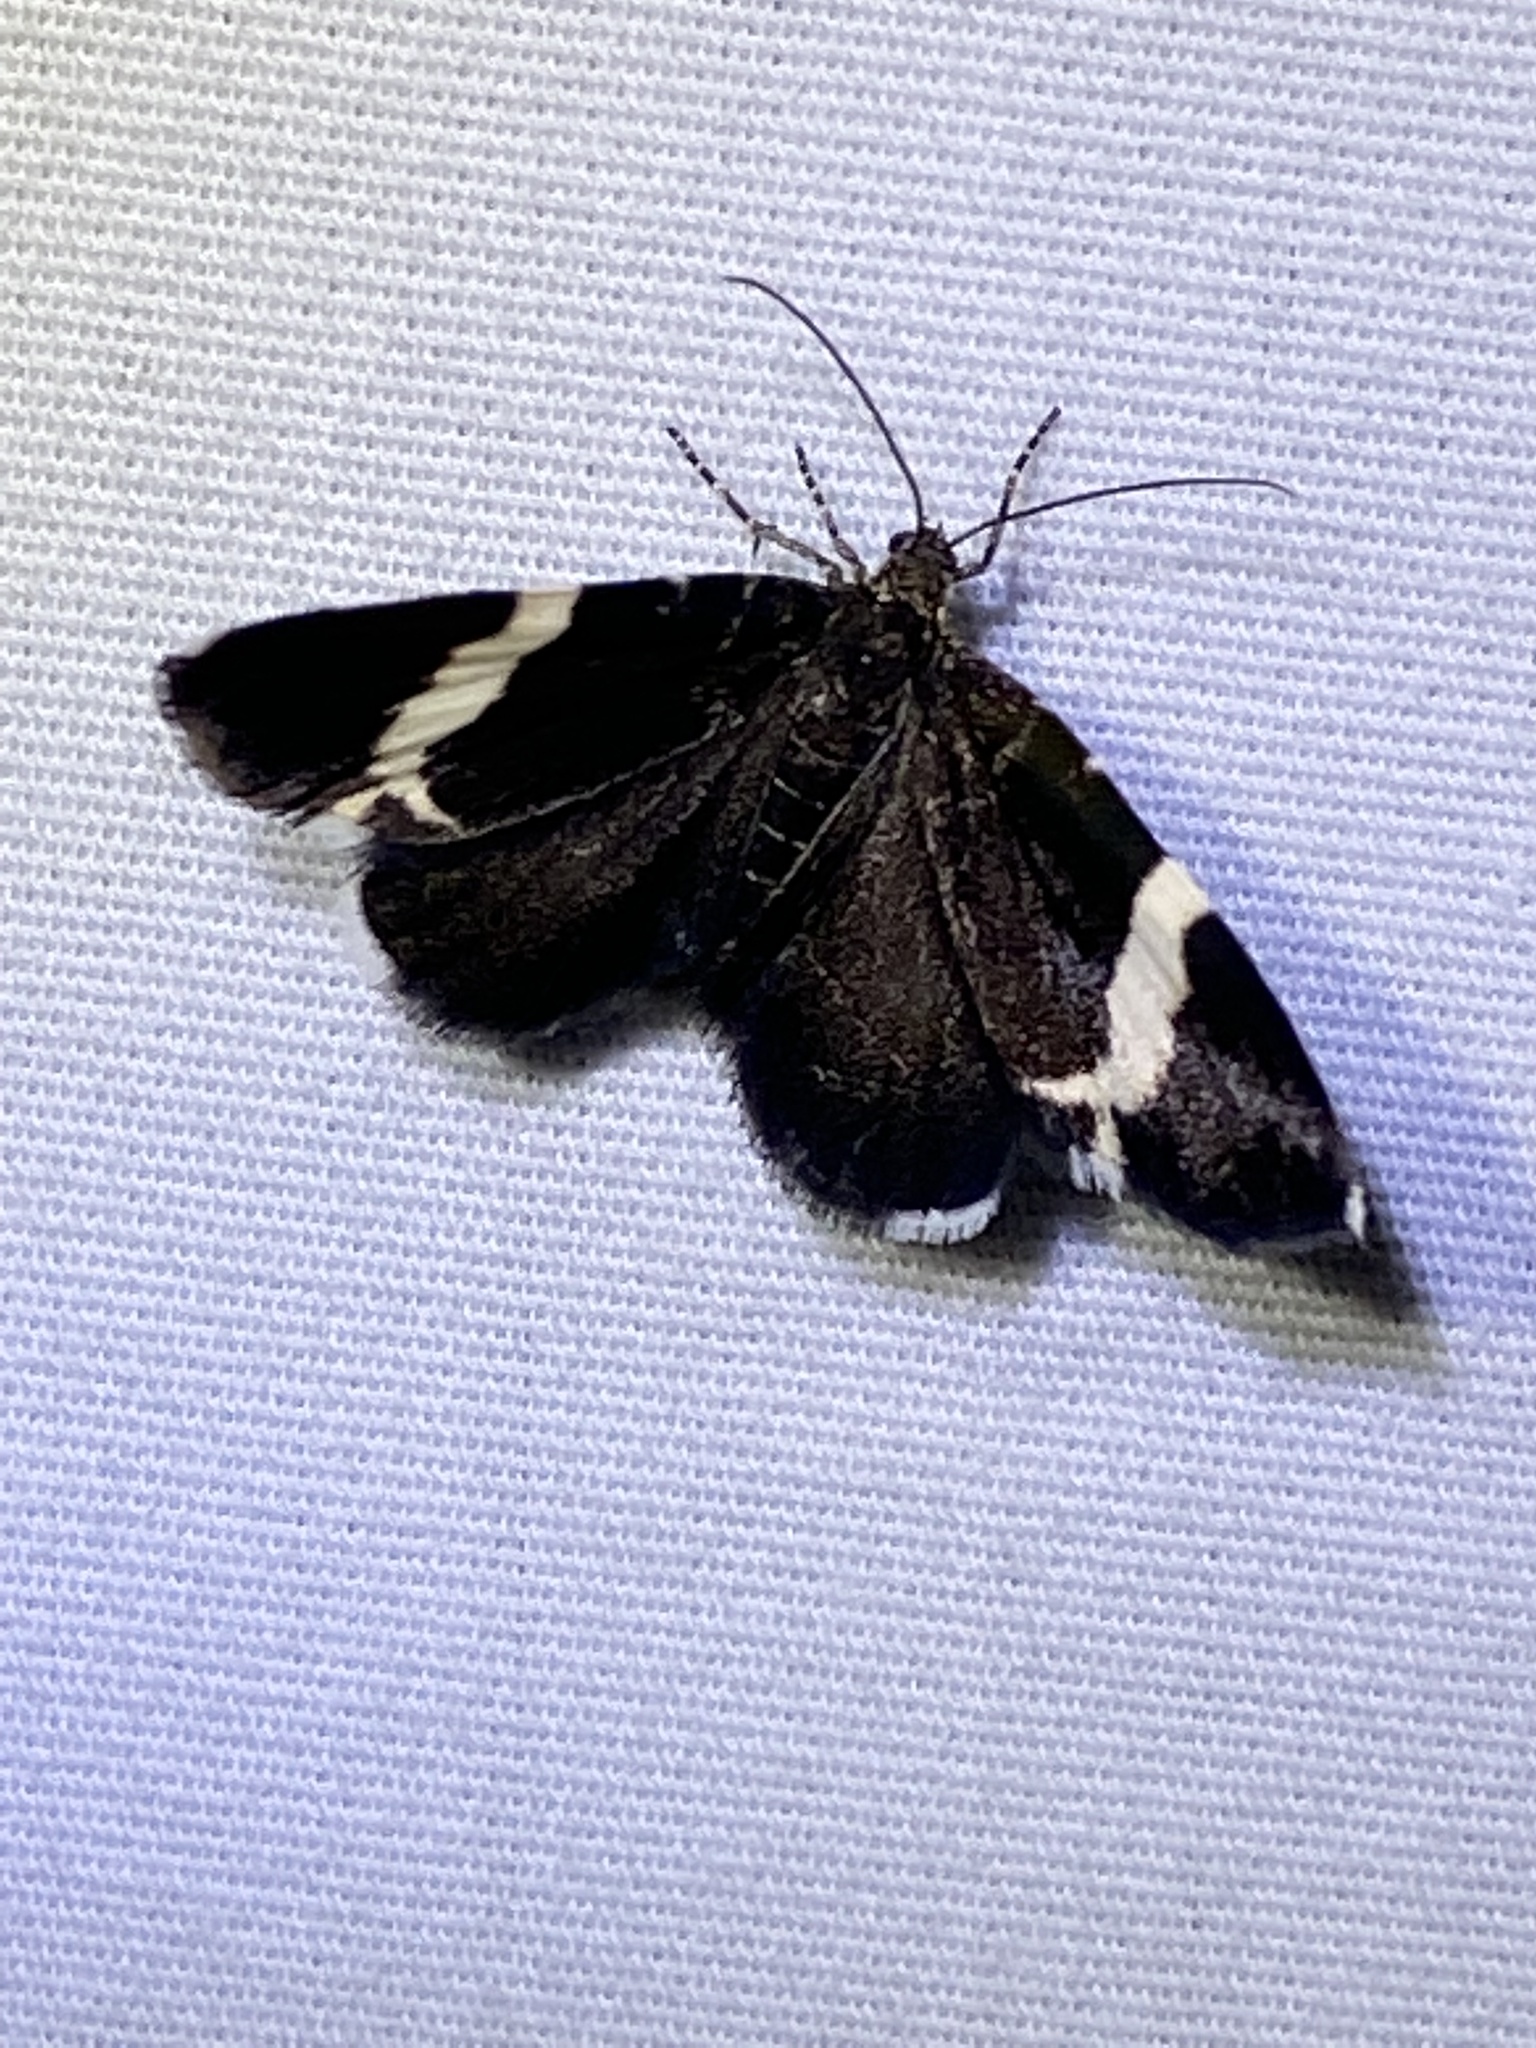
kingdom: Animalia
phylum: Arthropoda
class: Insecta
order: Lepidoptera
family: Geometridae
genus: Trichodezia
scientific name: Trichodezia albovittata
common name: White striped black
